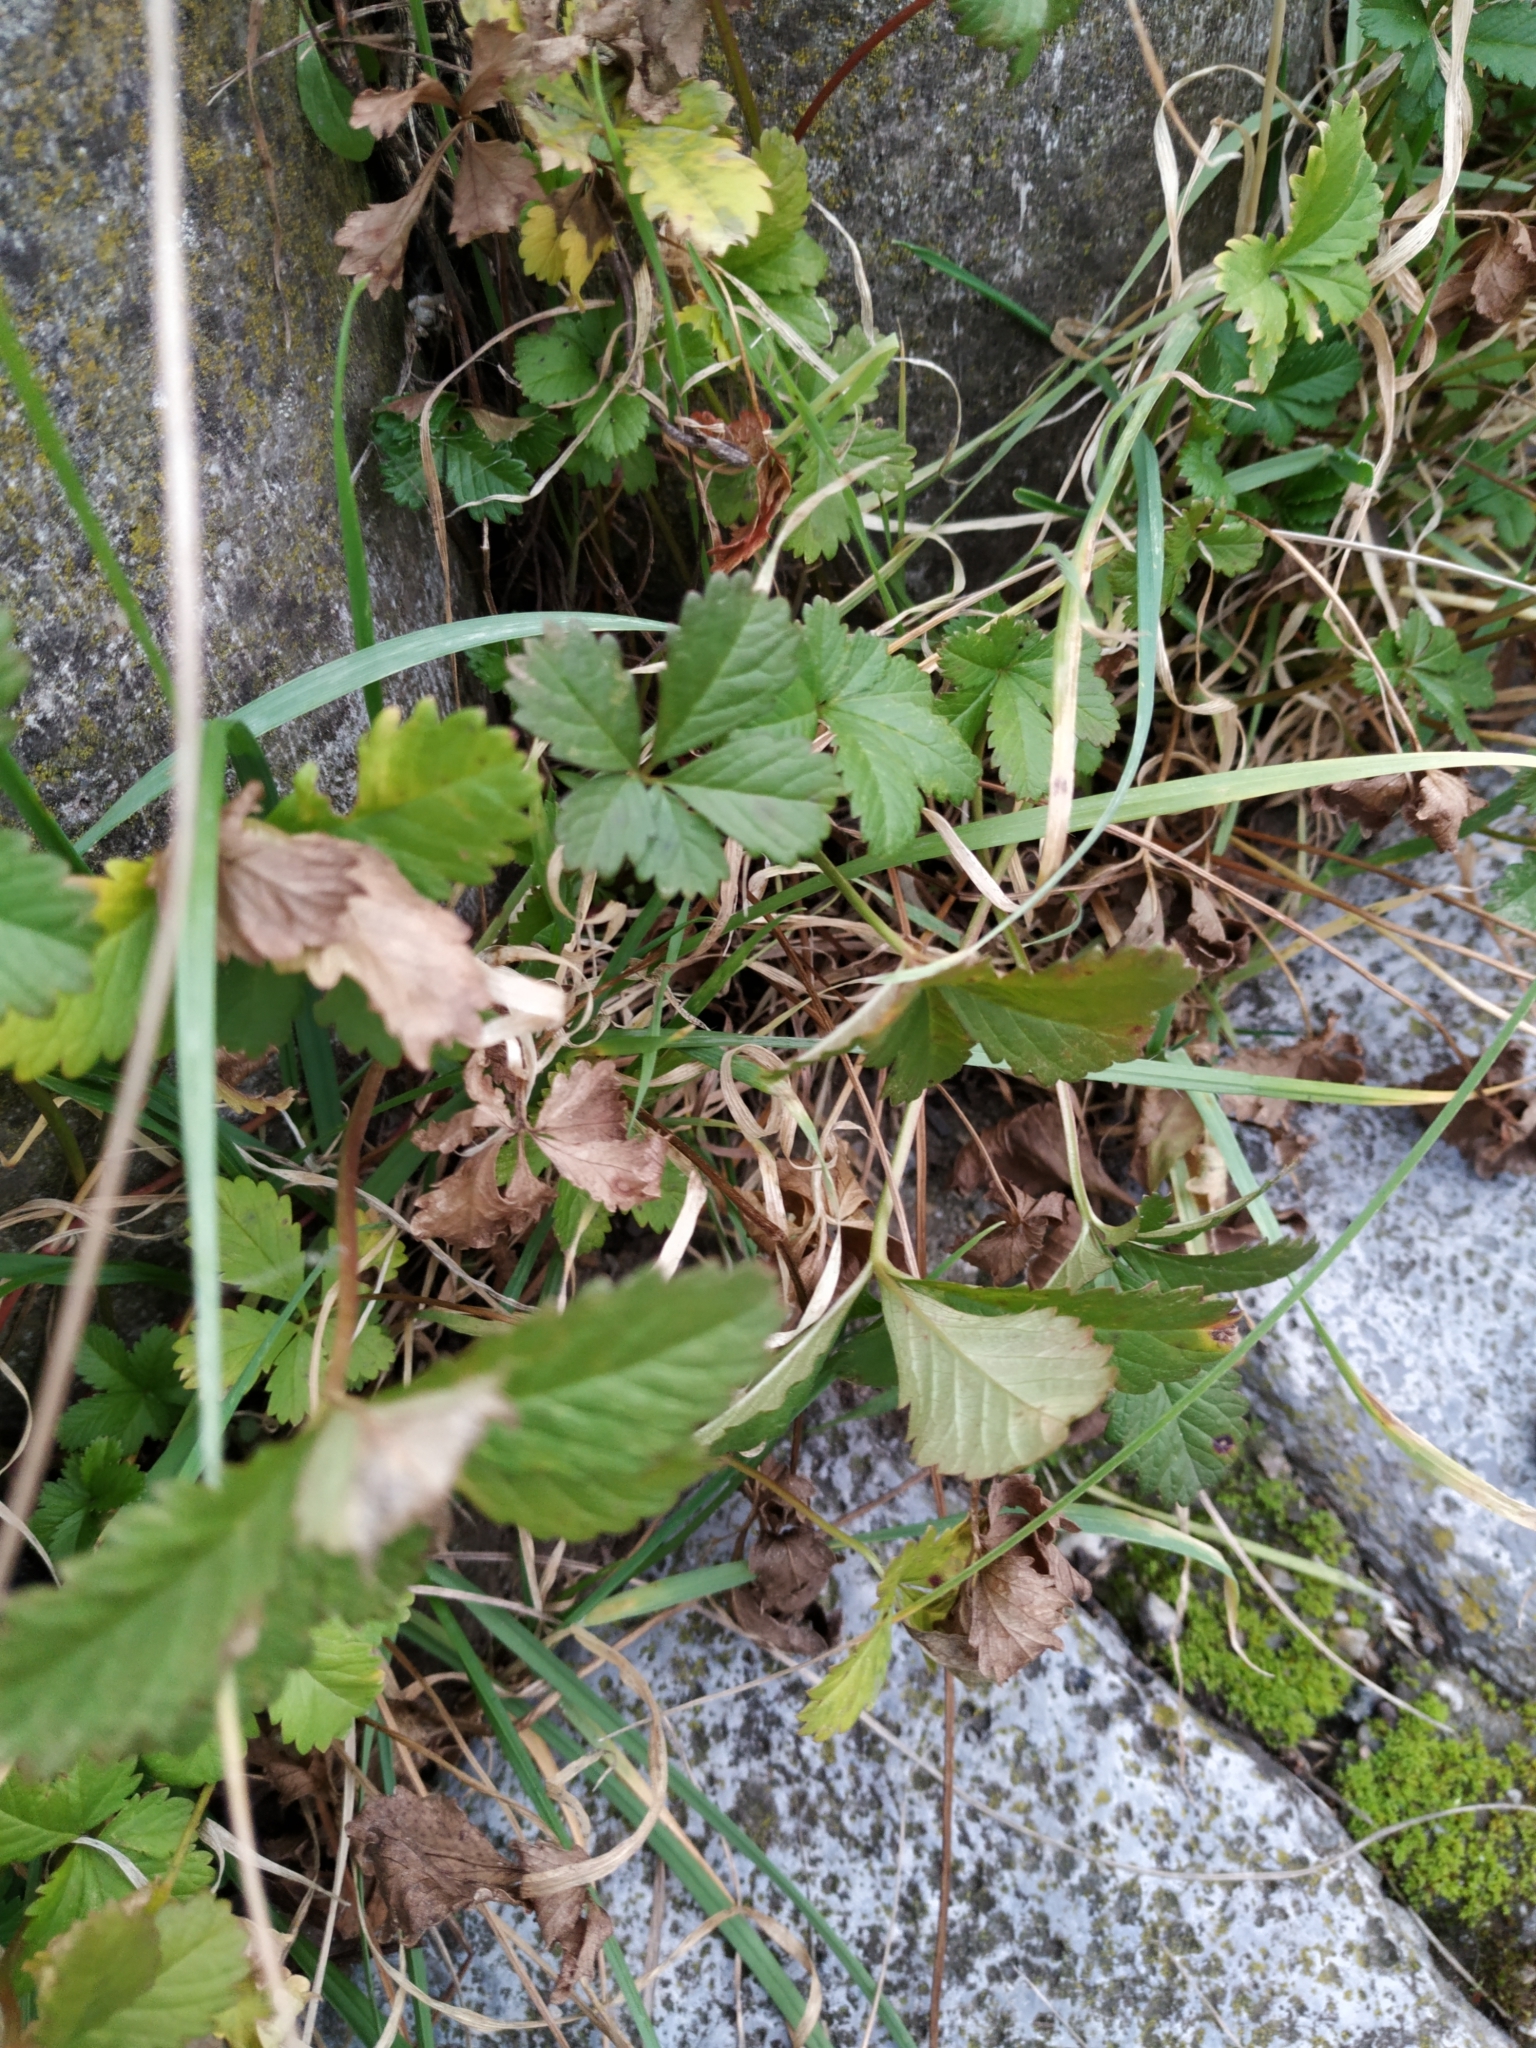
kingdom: Plantae
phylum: Tracheophyta
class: Magnoliopsida
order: Rosales
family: Rosaceae
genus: Potentilla
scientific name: Potentilla reptans
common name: Creeping cinquefoil
